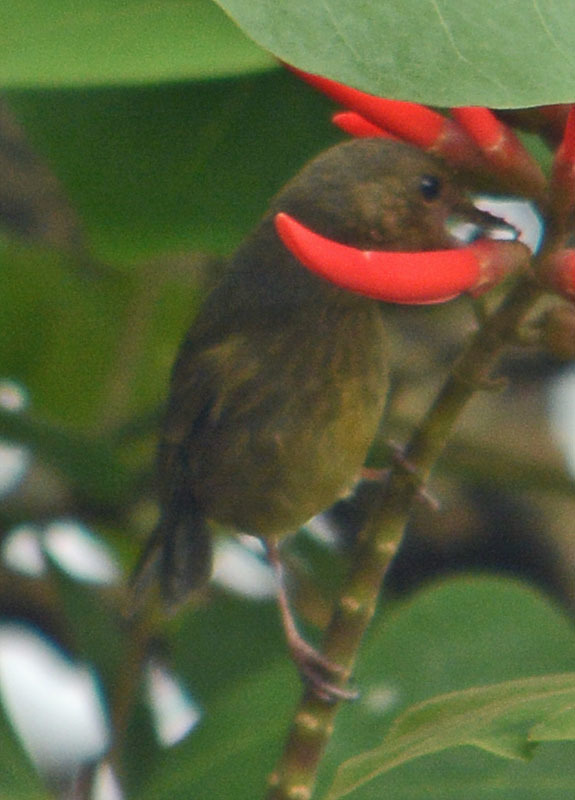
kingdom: Animalia
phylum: Chordata
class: Aves
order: Passeriformes
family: Thraupidae
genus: Diglossa
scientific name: Diglossa baritula
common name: Cinnamon-bellied flowerpiercer
